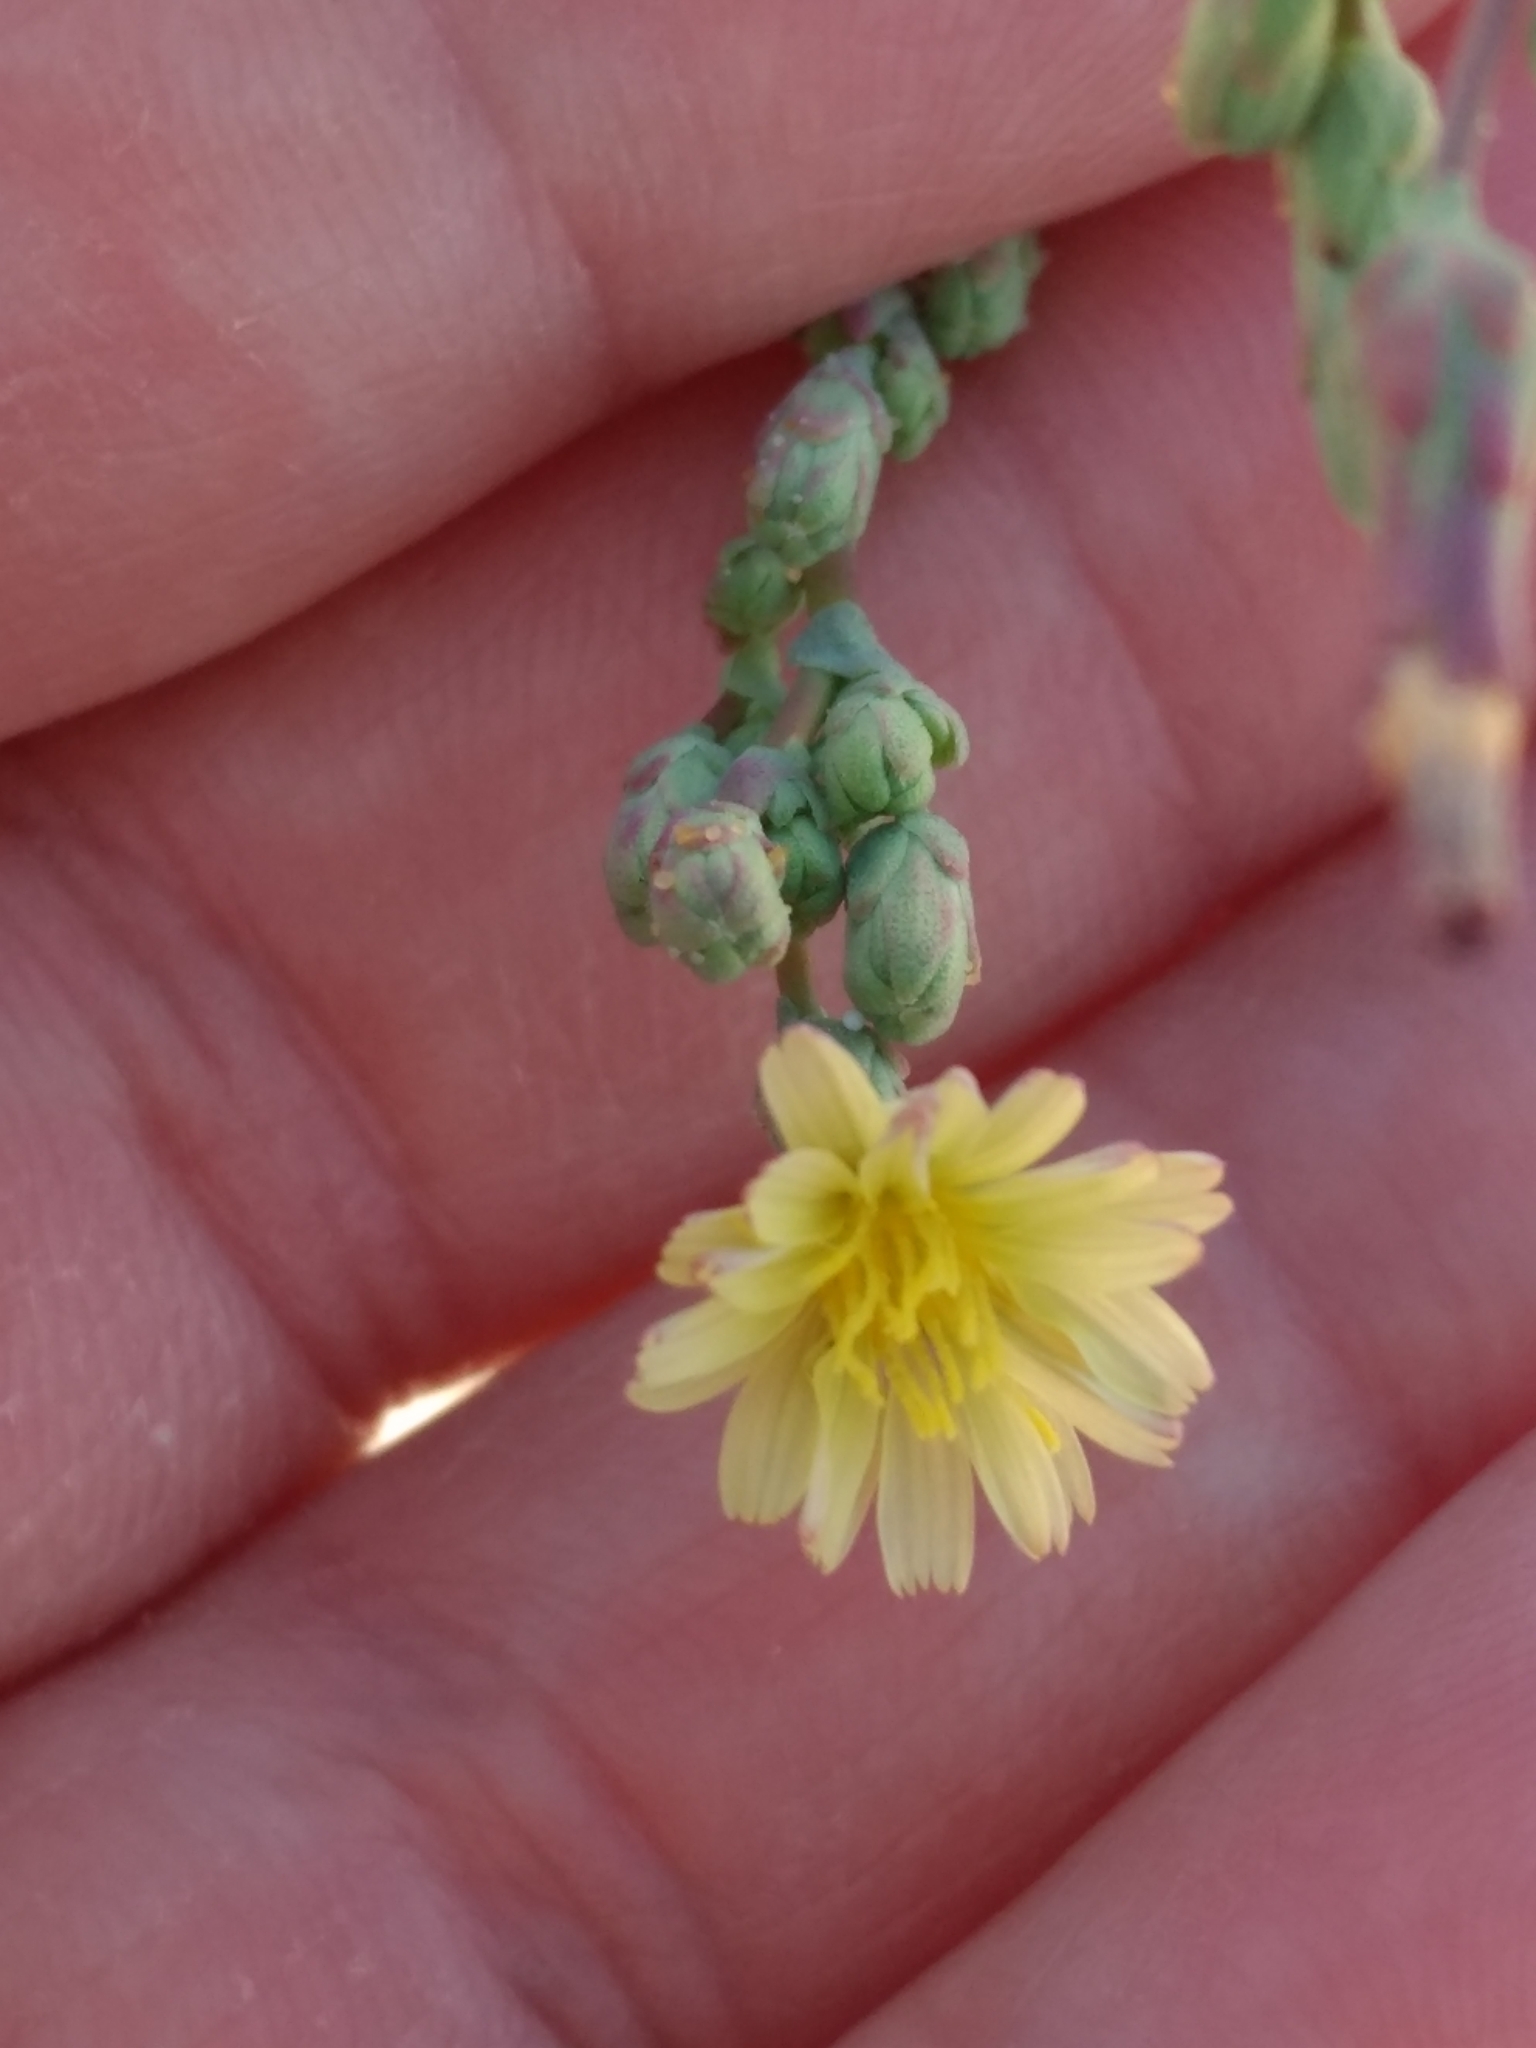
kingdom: Plantae
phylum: Tracheophyta
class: Magnoliopsida
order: Asterales
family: Asteraceae
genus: Lactuca
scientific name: Lactuca serriola
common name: Prickly lettuce
